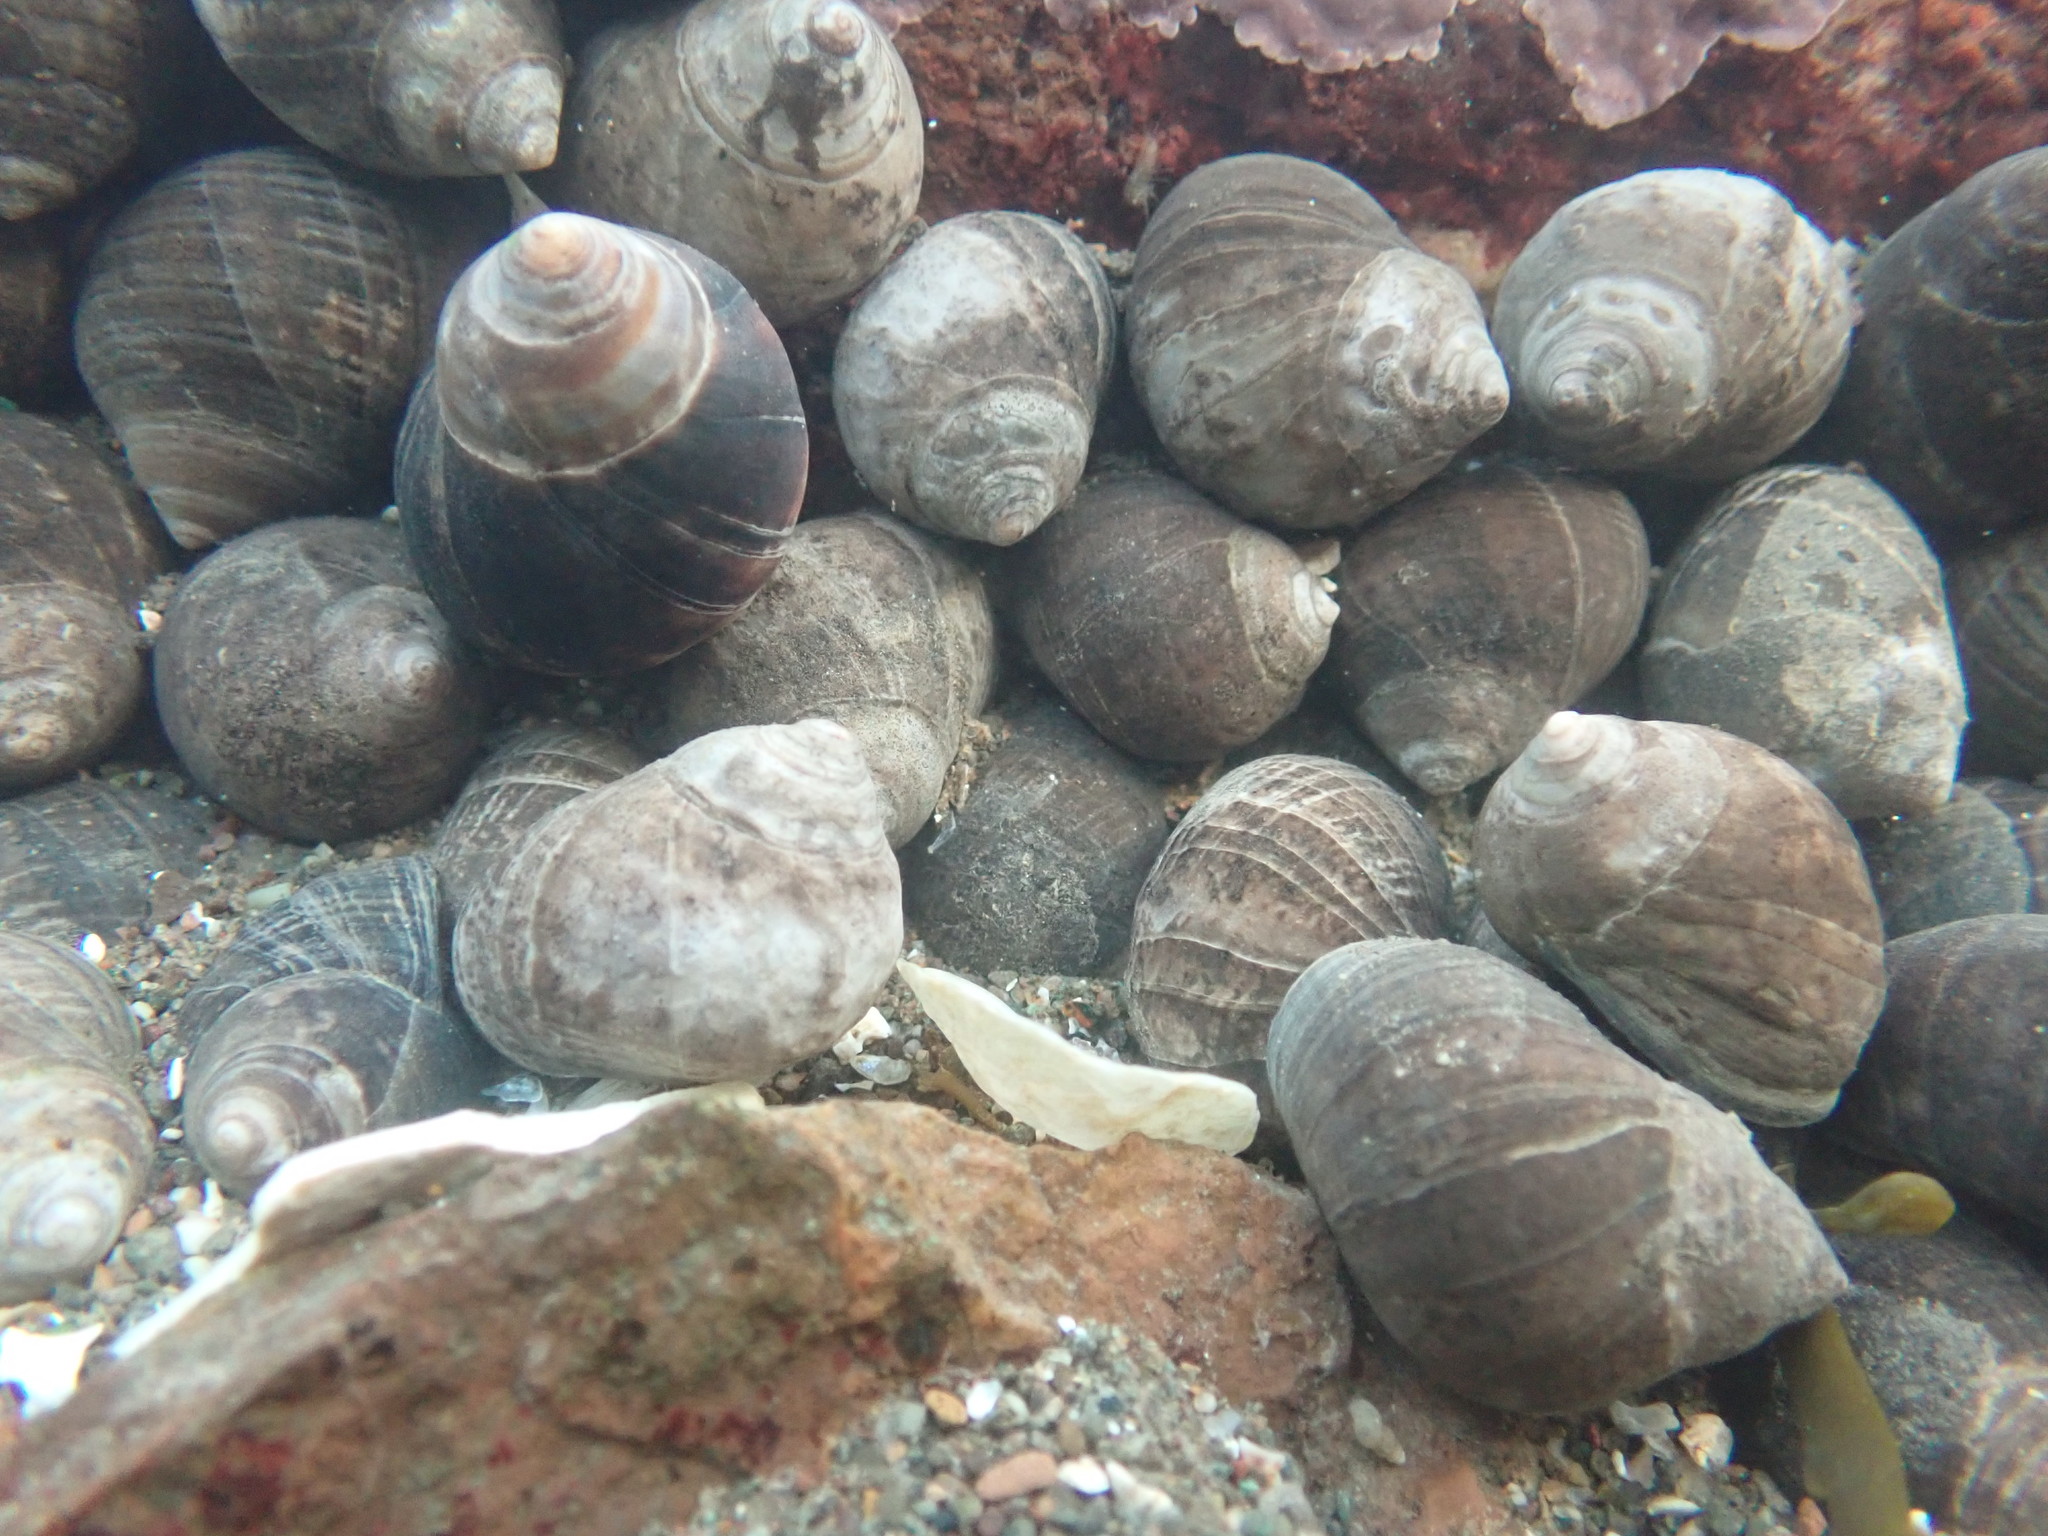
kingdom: Animalia
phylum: Mollusca
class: Gastropoda
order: Littorinimorpha
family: Littorinidae
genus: Littorina
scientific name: Littorina littorea
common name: Common periwinkle
